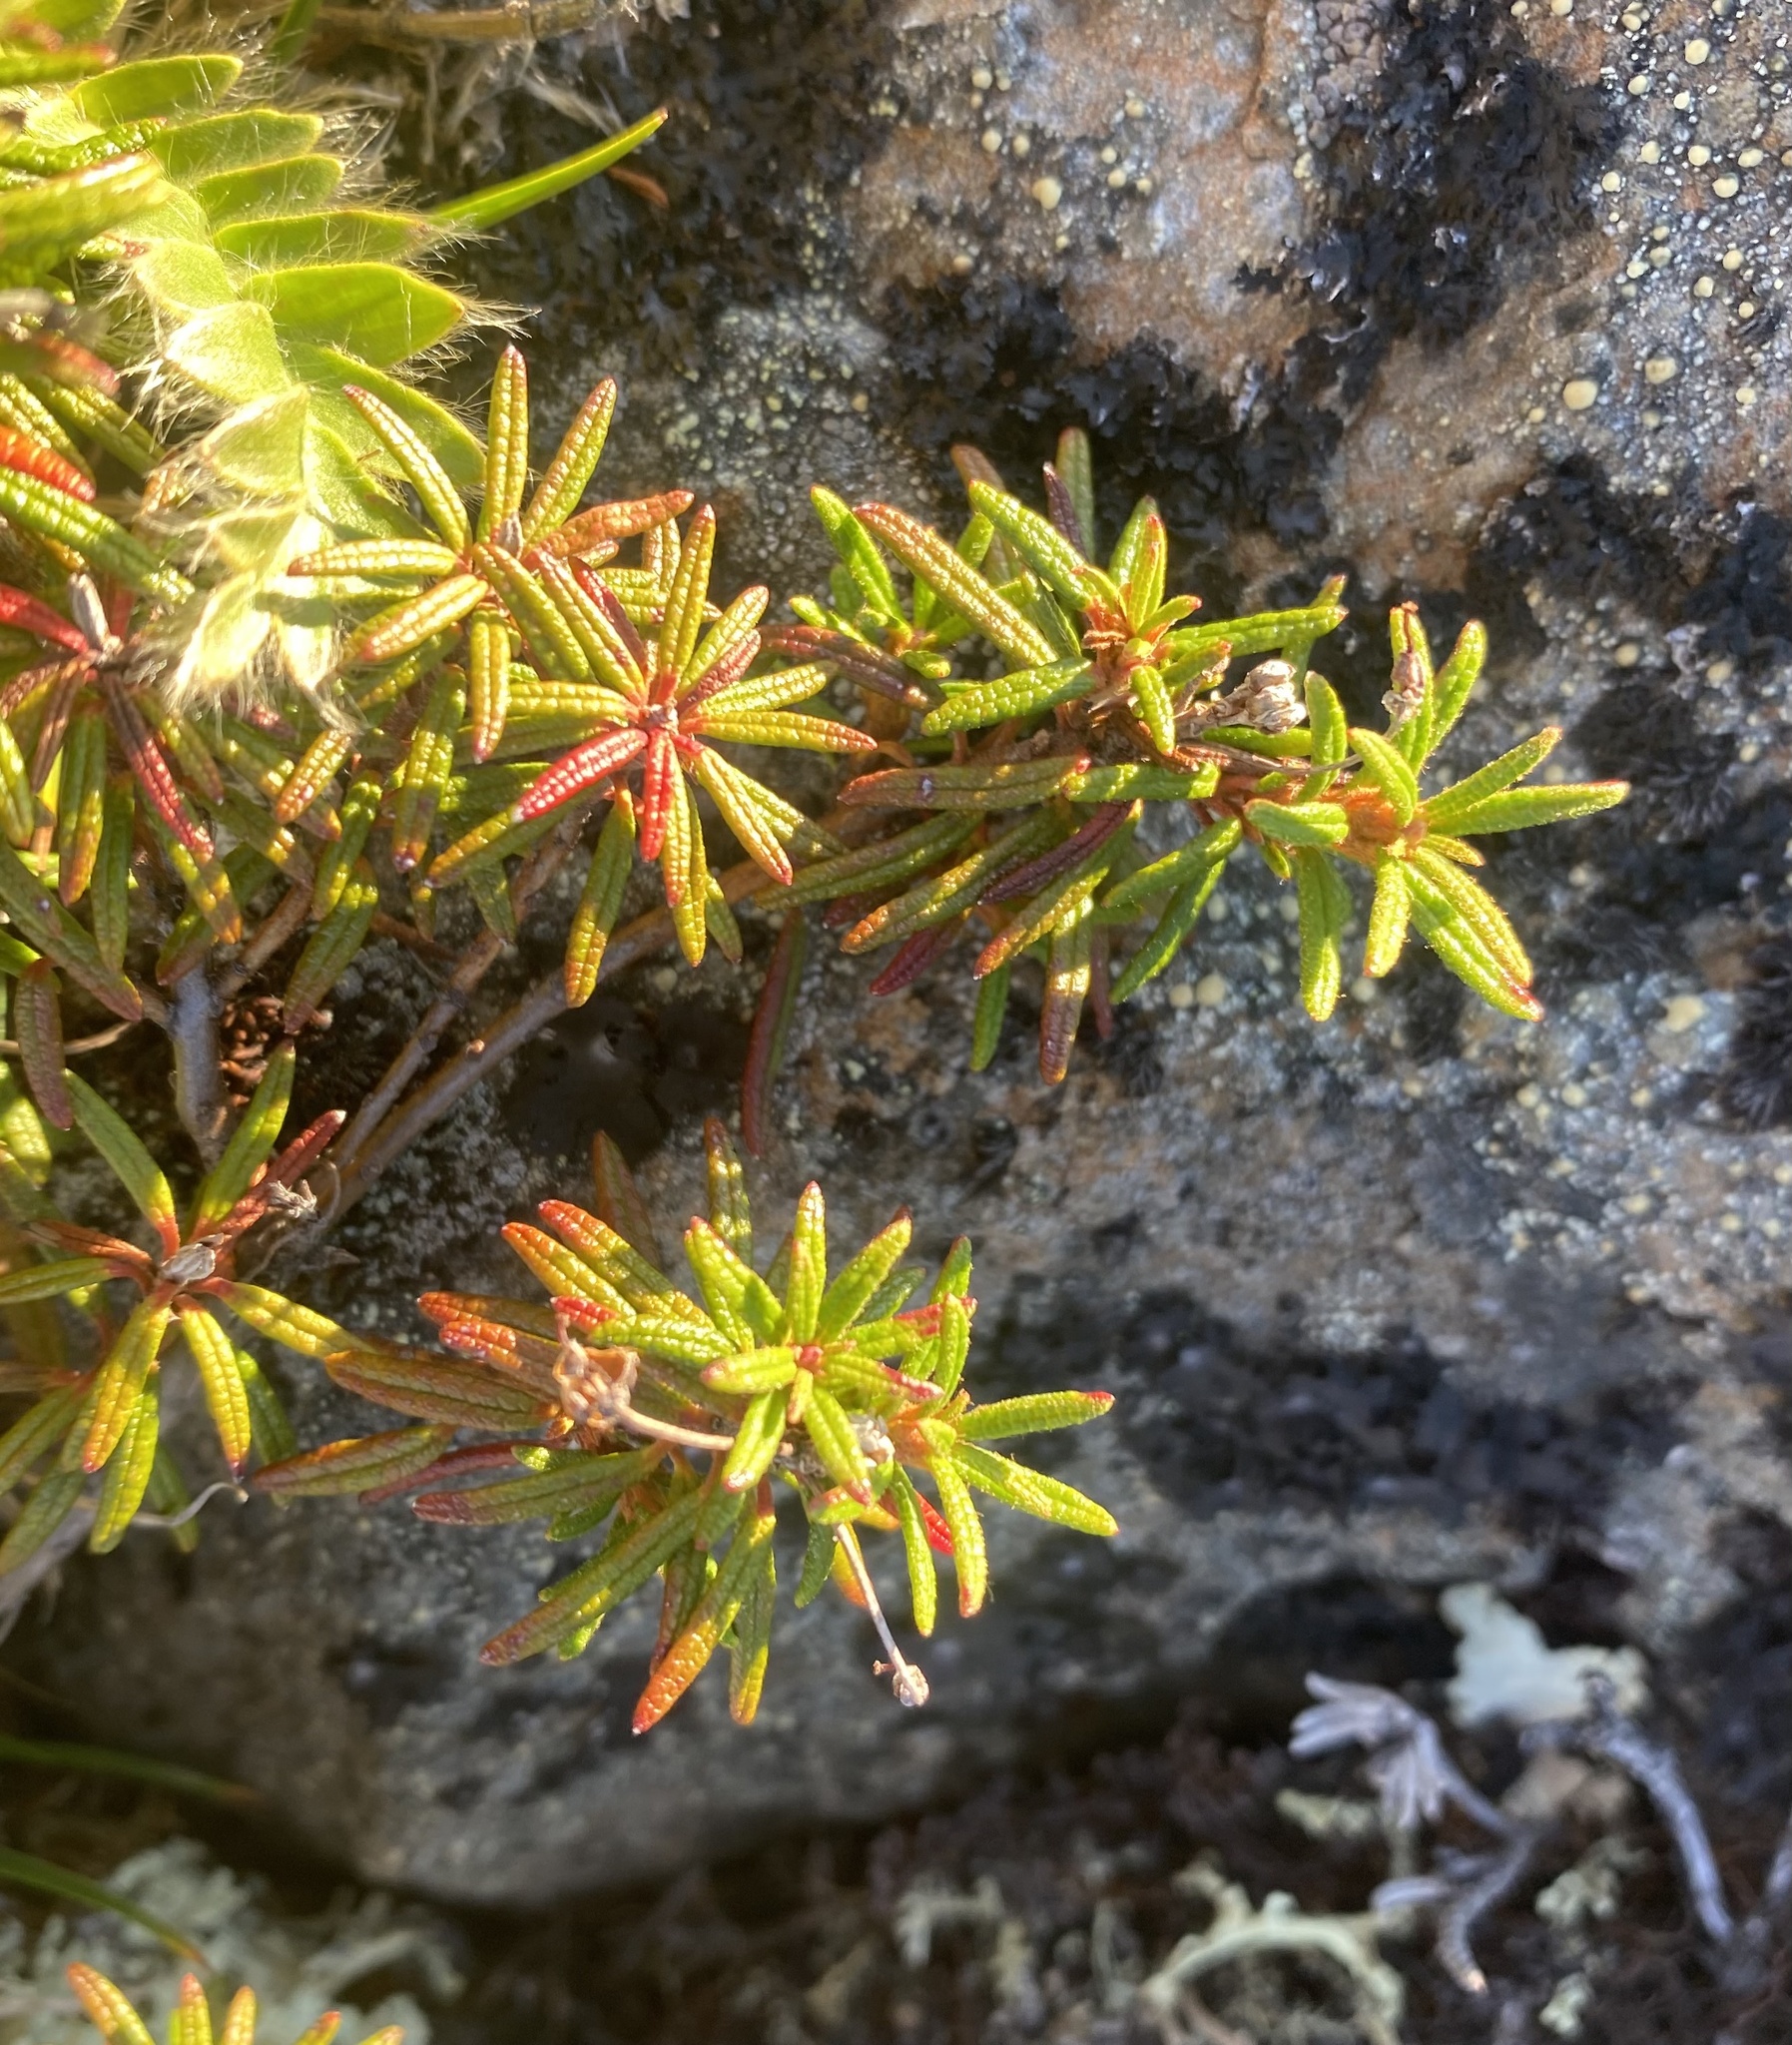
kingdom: Plantae
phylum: Tracheophyta
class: Magnoliopsida
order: Ericales
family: Ericaceae
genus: Rhododendron
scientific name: Rhododendron tomentosum
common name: Marsh labrador tea
